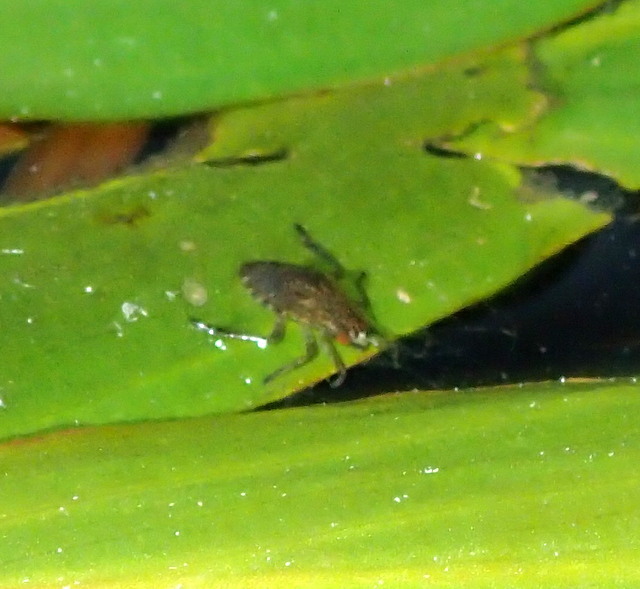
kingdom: Animalia
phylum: Arthropoda
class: Insecta
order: Hemiptera
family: Belostomatidae
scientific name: Belostomatidae
